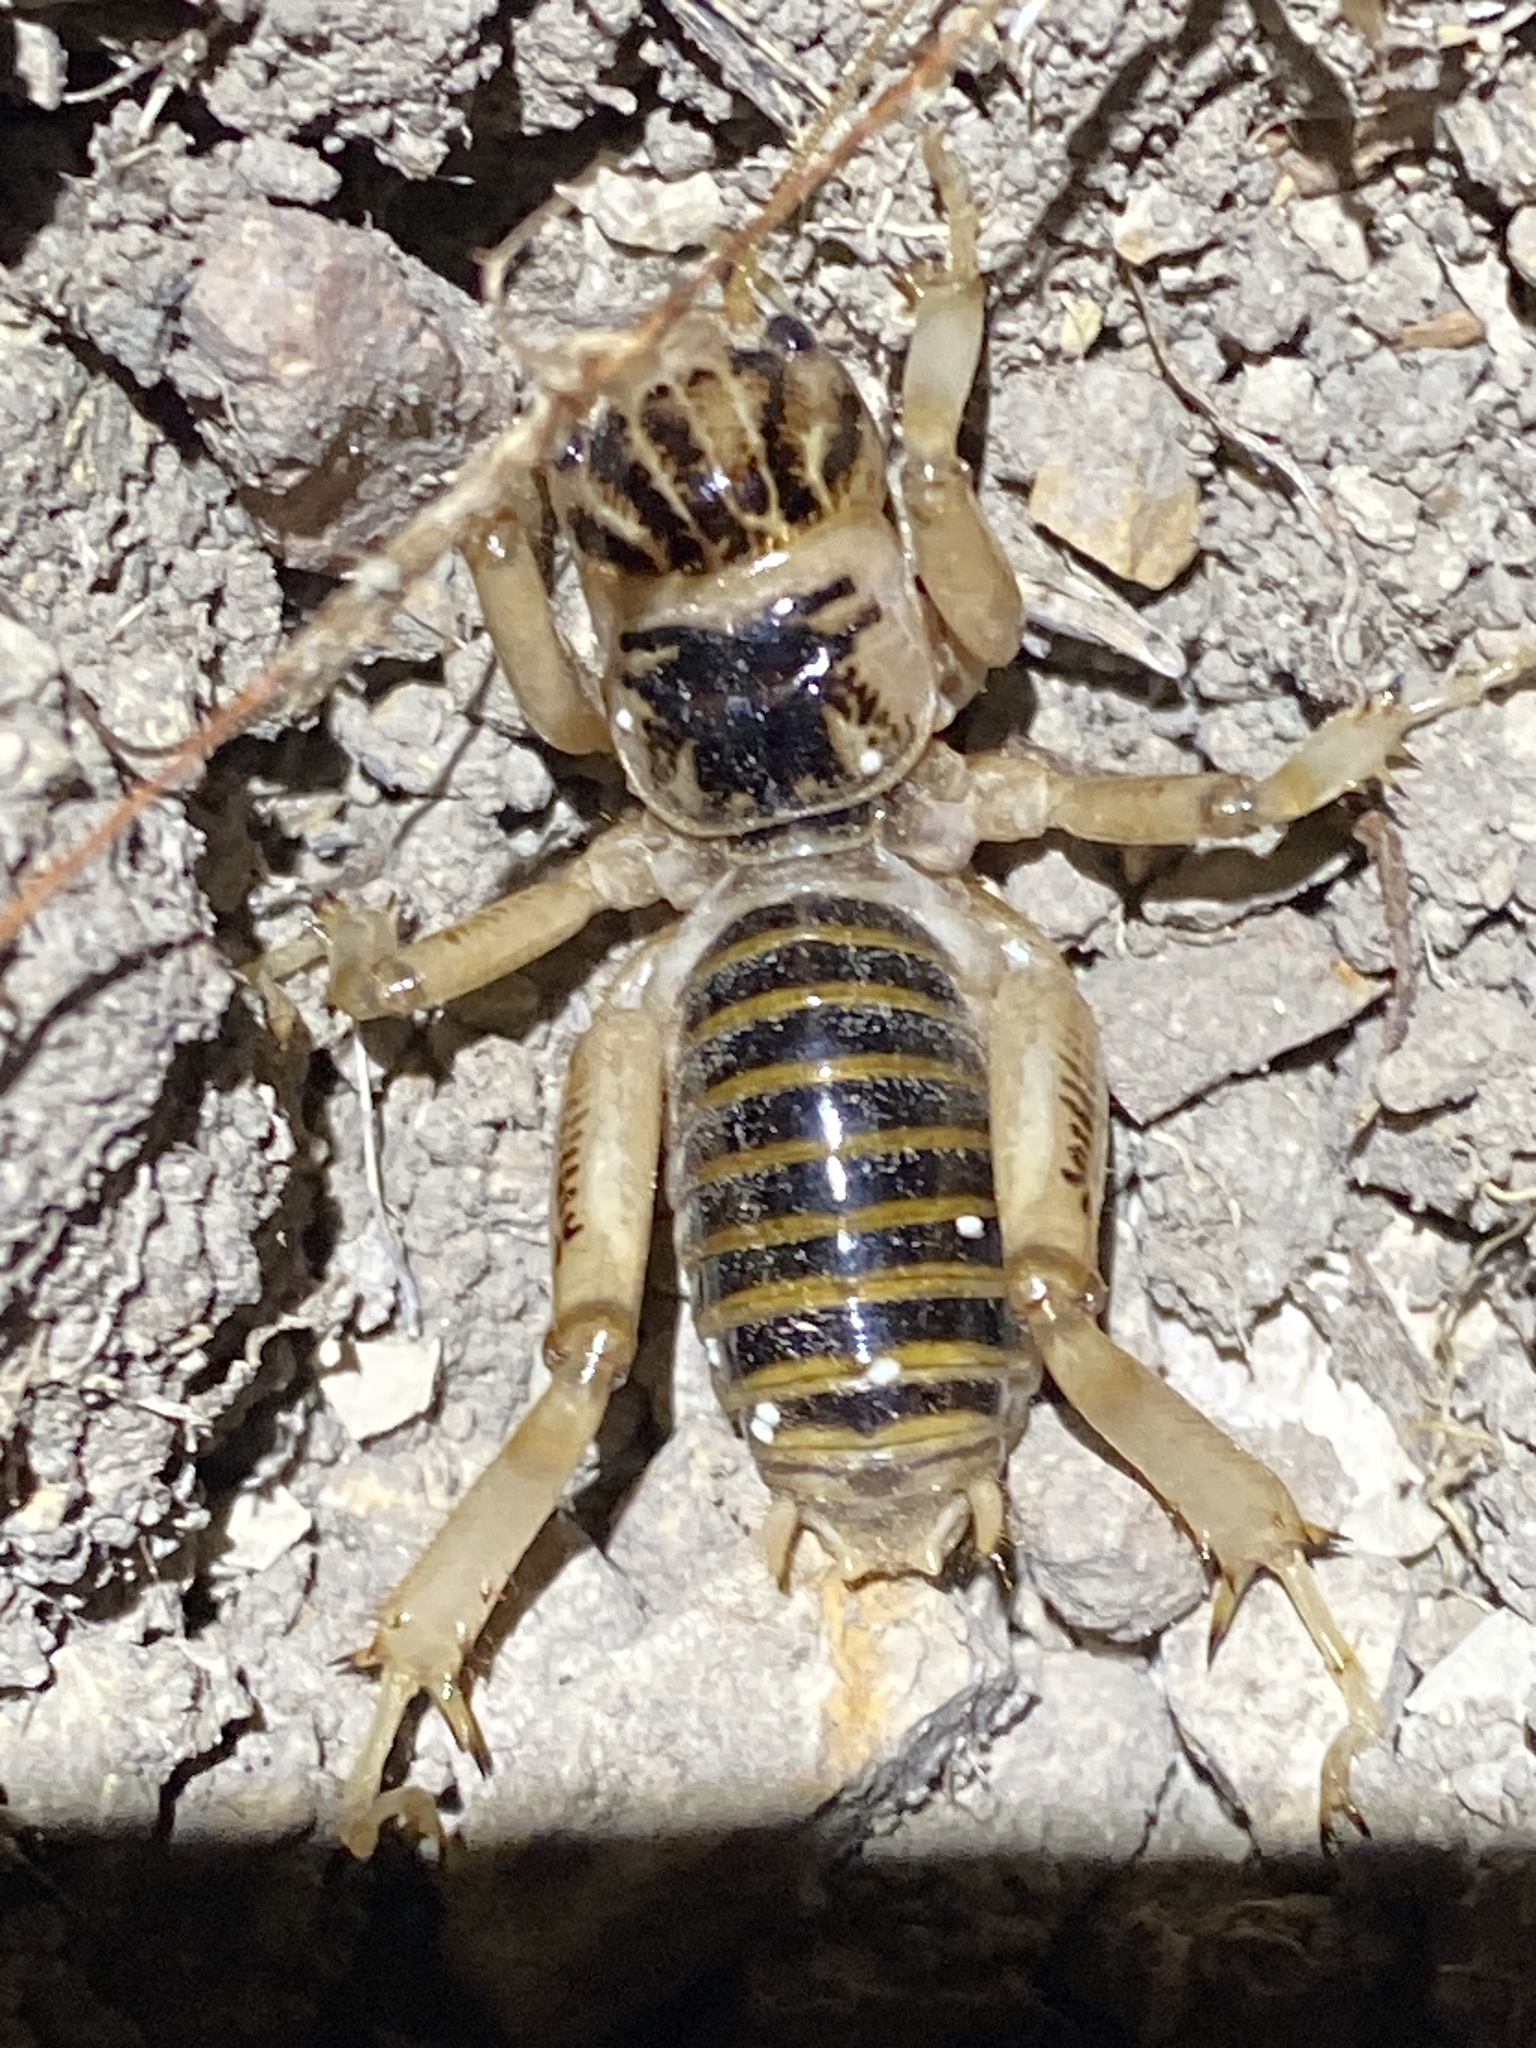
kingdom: Animalia
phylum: Arthropoda
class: Insecta
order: Orthoptera
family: Stenopelmatidae
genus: Ammopelmatus
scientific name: Ammopelmatus pictus
